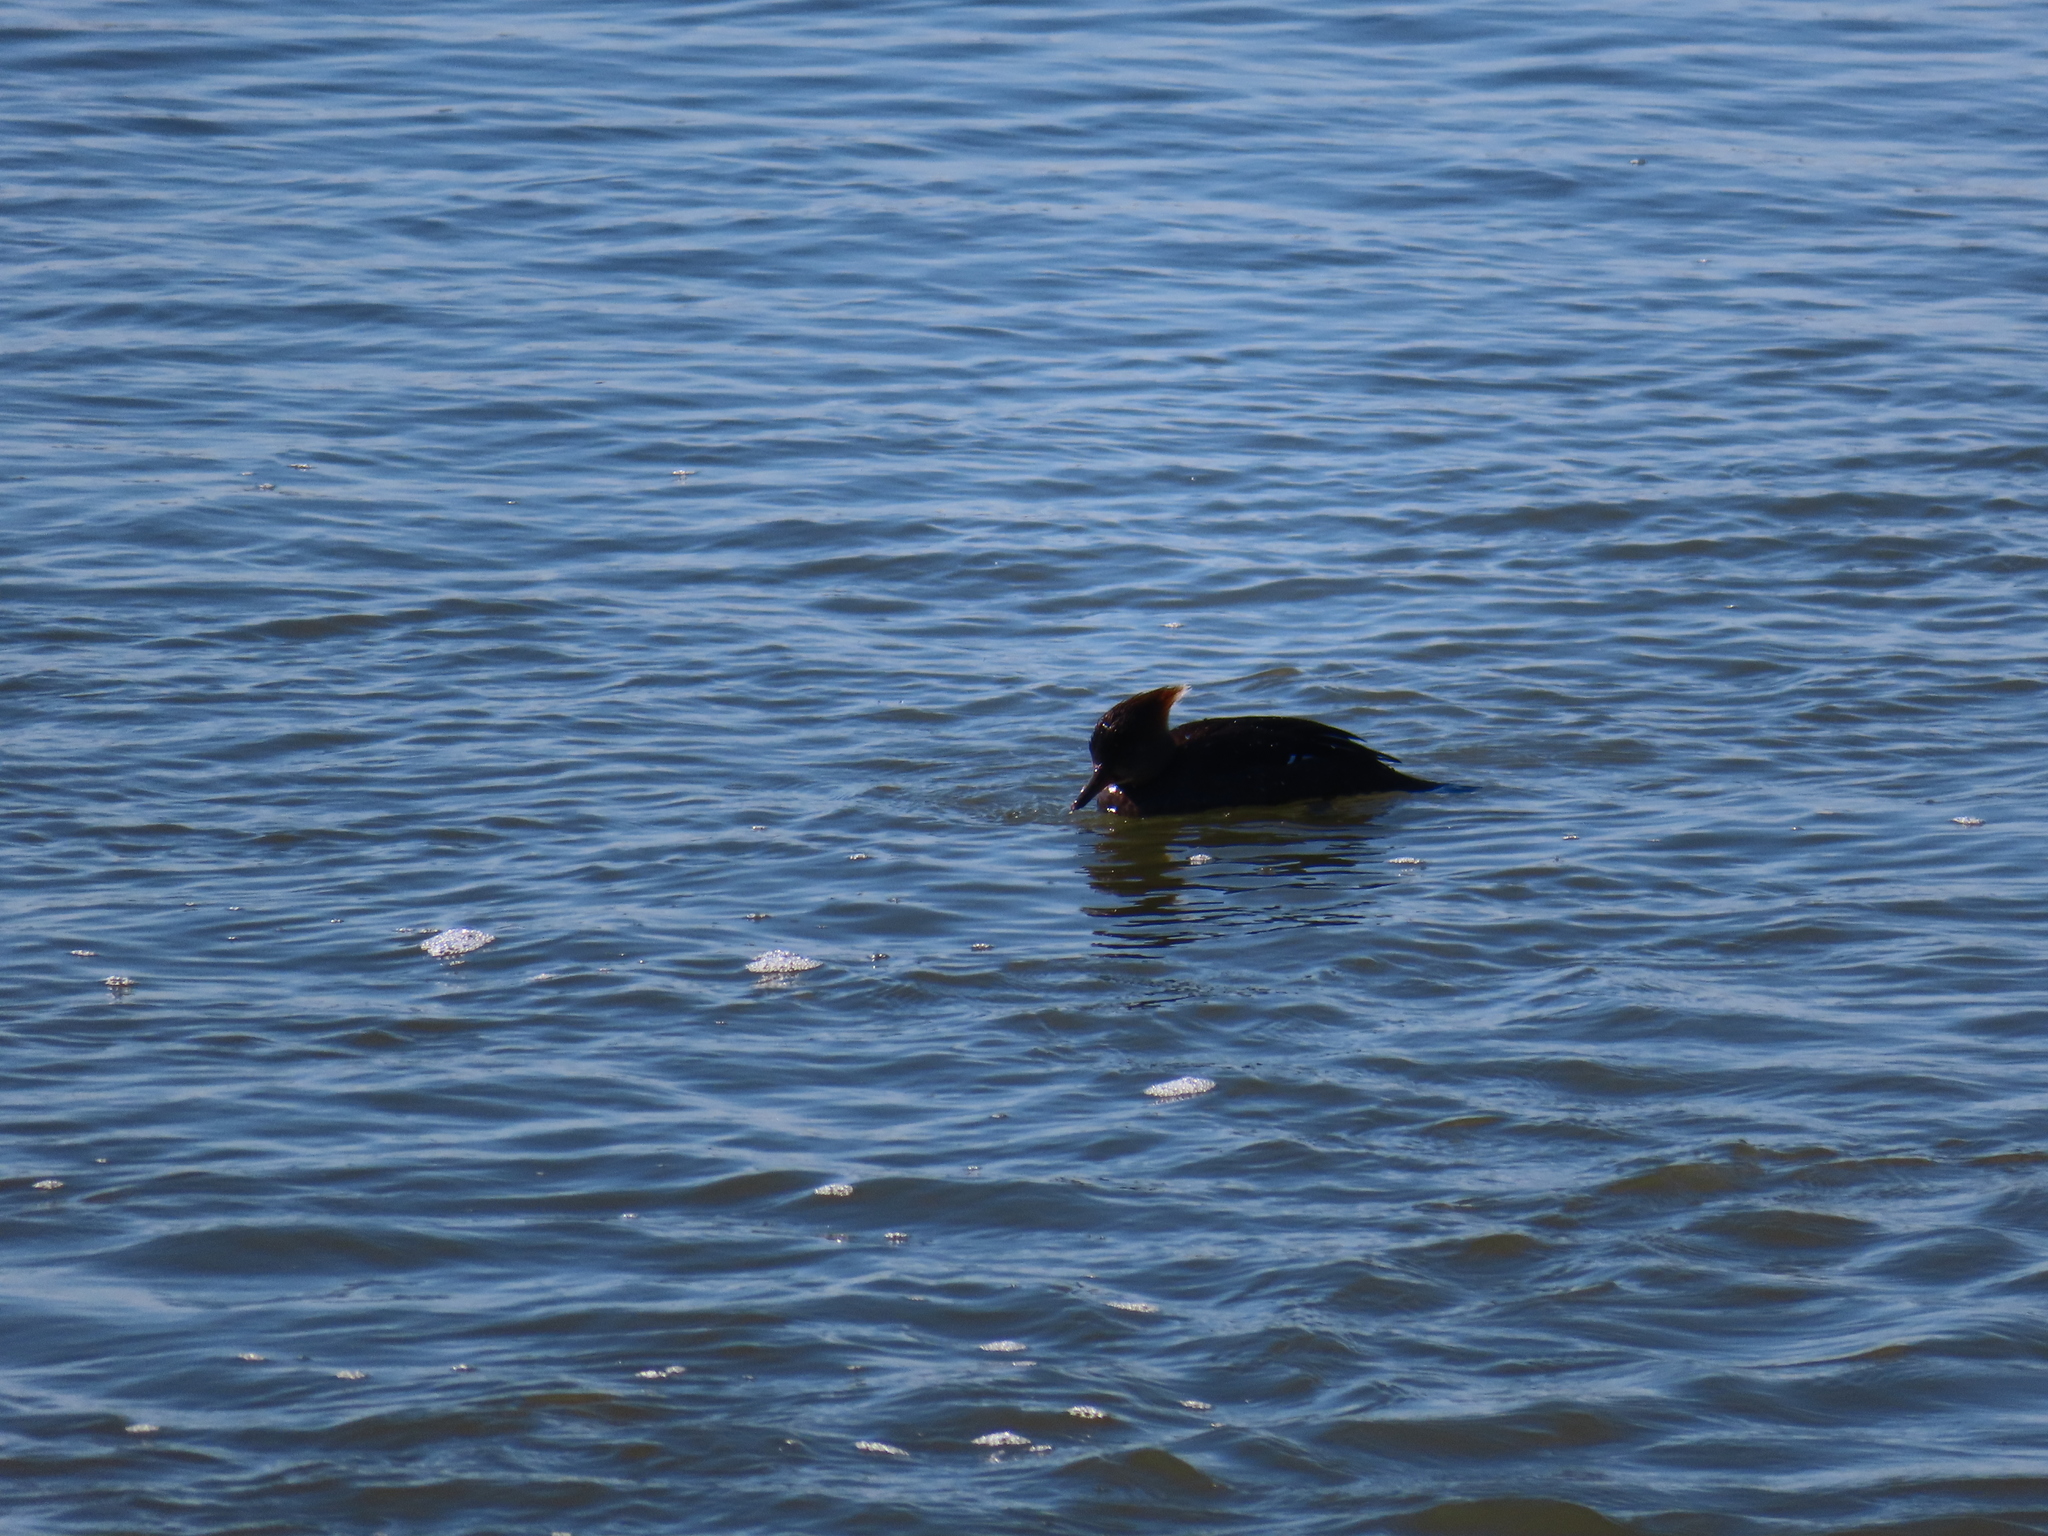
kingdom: Animalia
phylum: Chordata
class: Aves
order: Anseriformes
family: Anatidae
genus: Lophodytes
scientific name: Lophodytes cucullatus
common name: Hooded merganser
